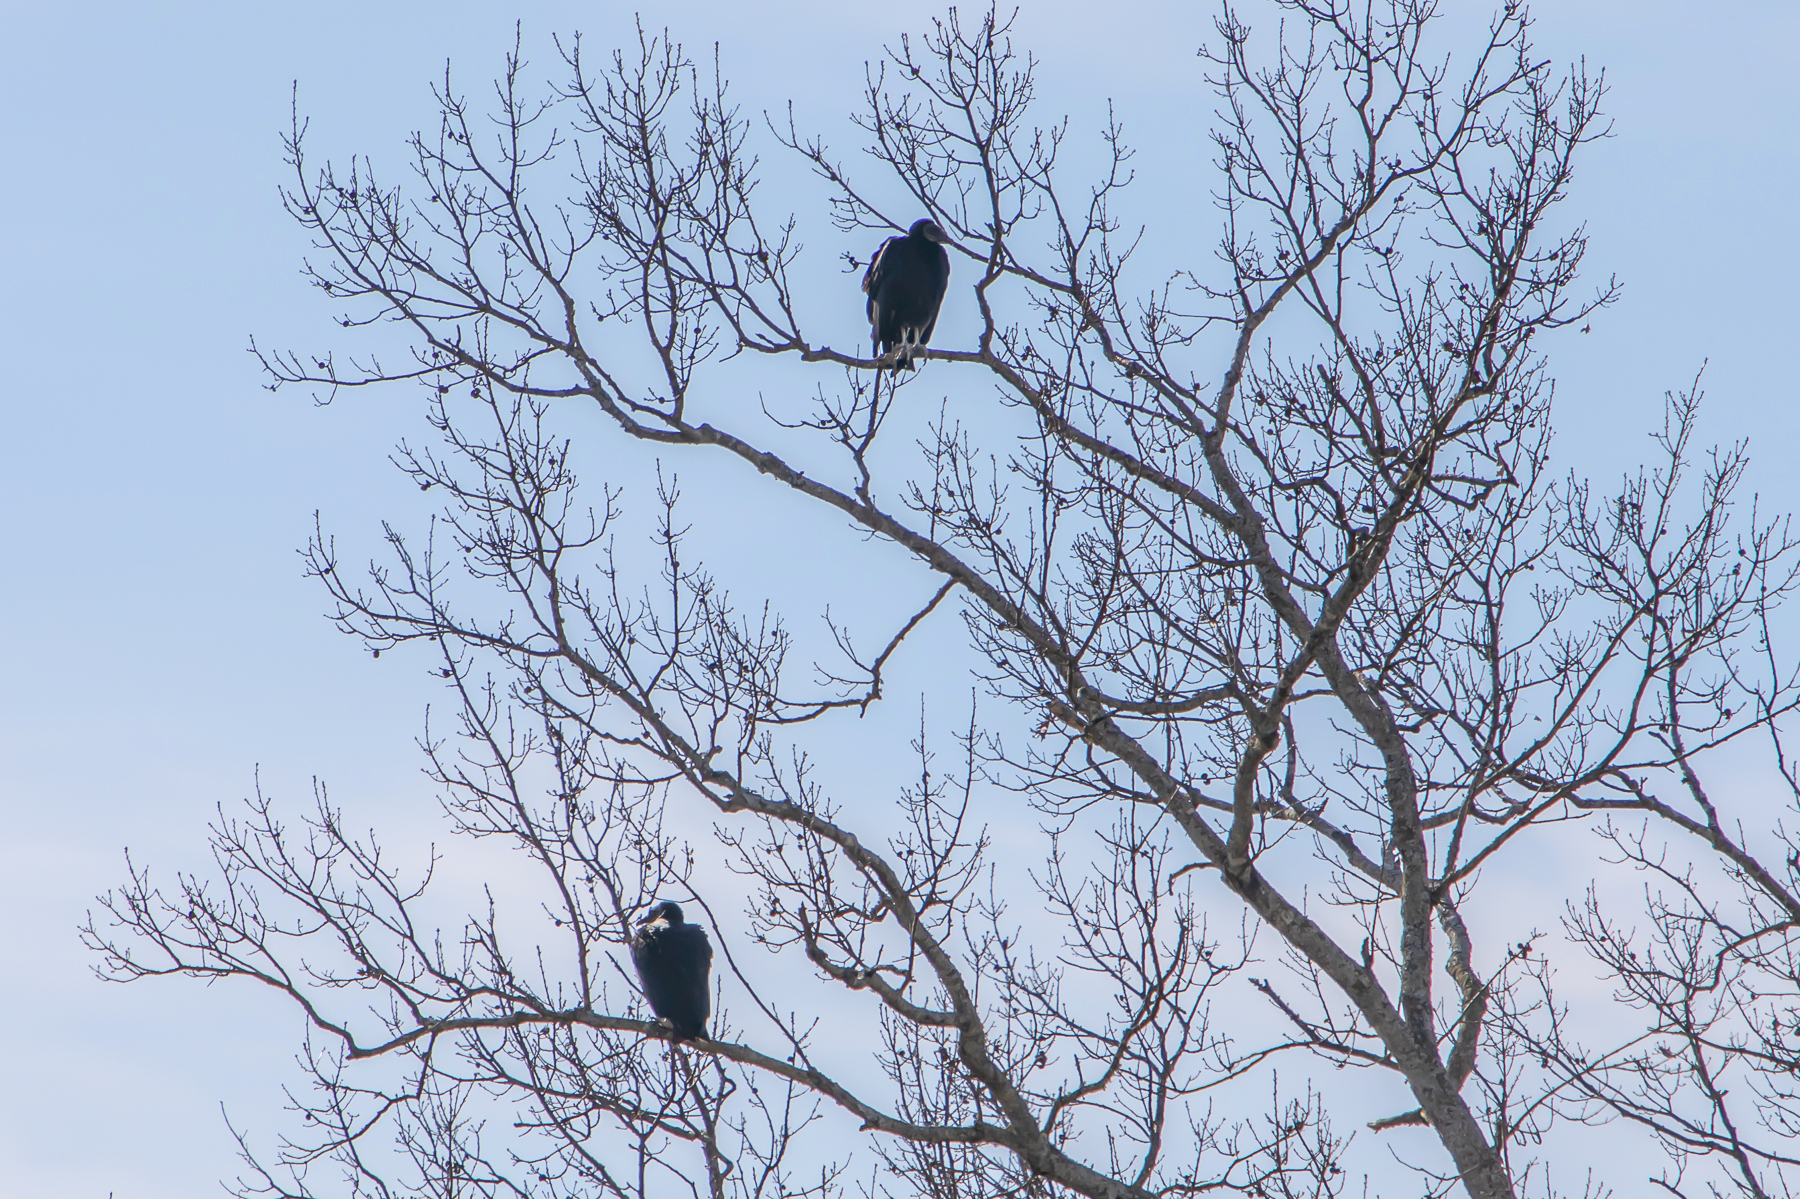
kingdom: Animalia
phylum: Chordata
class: Aves
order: Accipitriformes
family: Cathartidae
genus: Coragyps
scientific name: Coragyps atratus
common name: Black vulture
